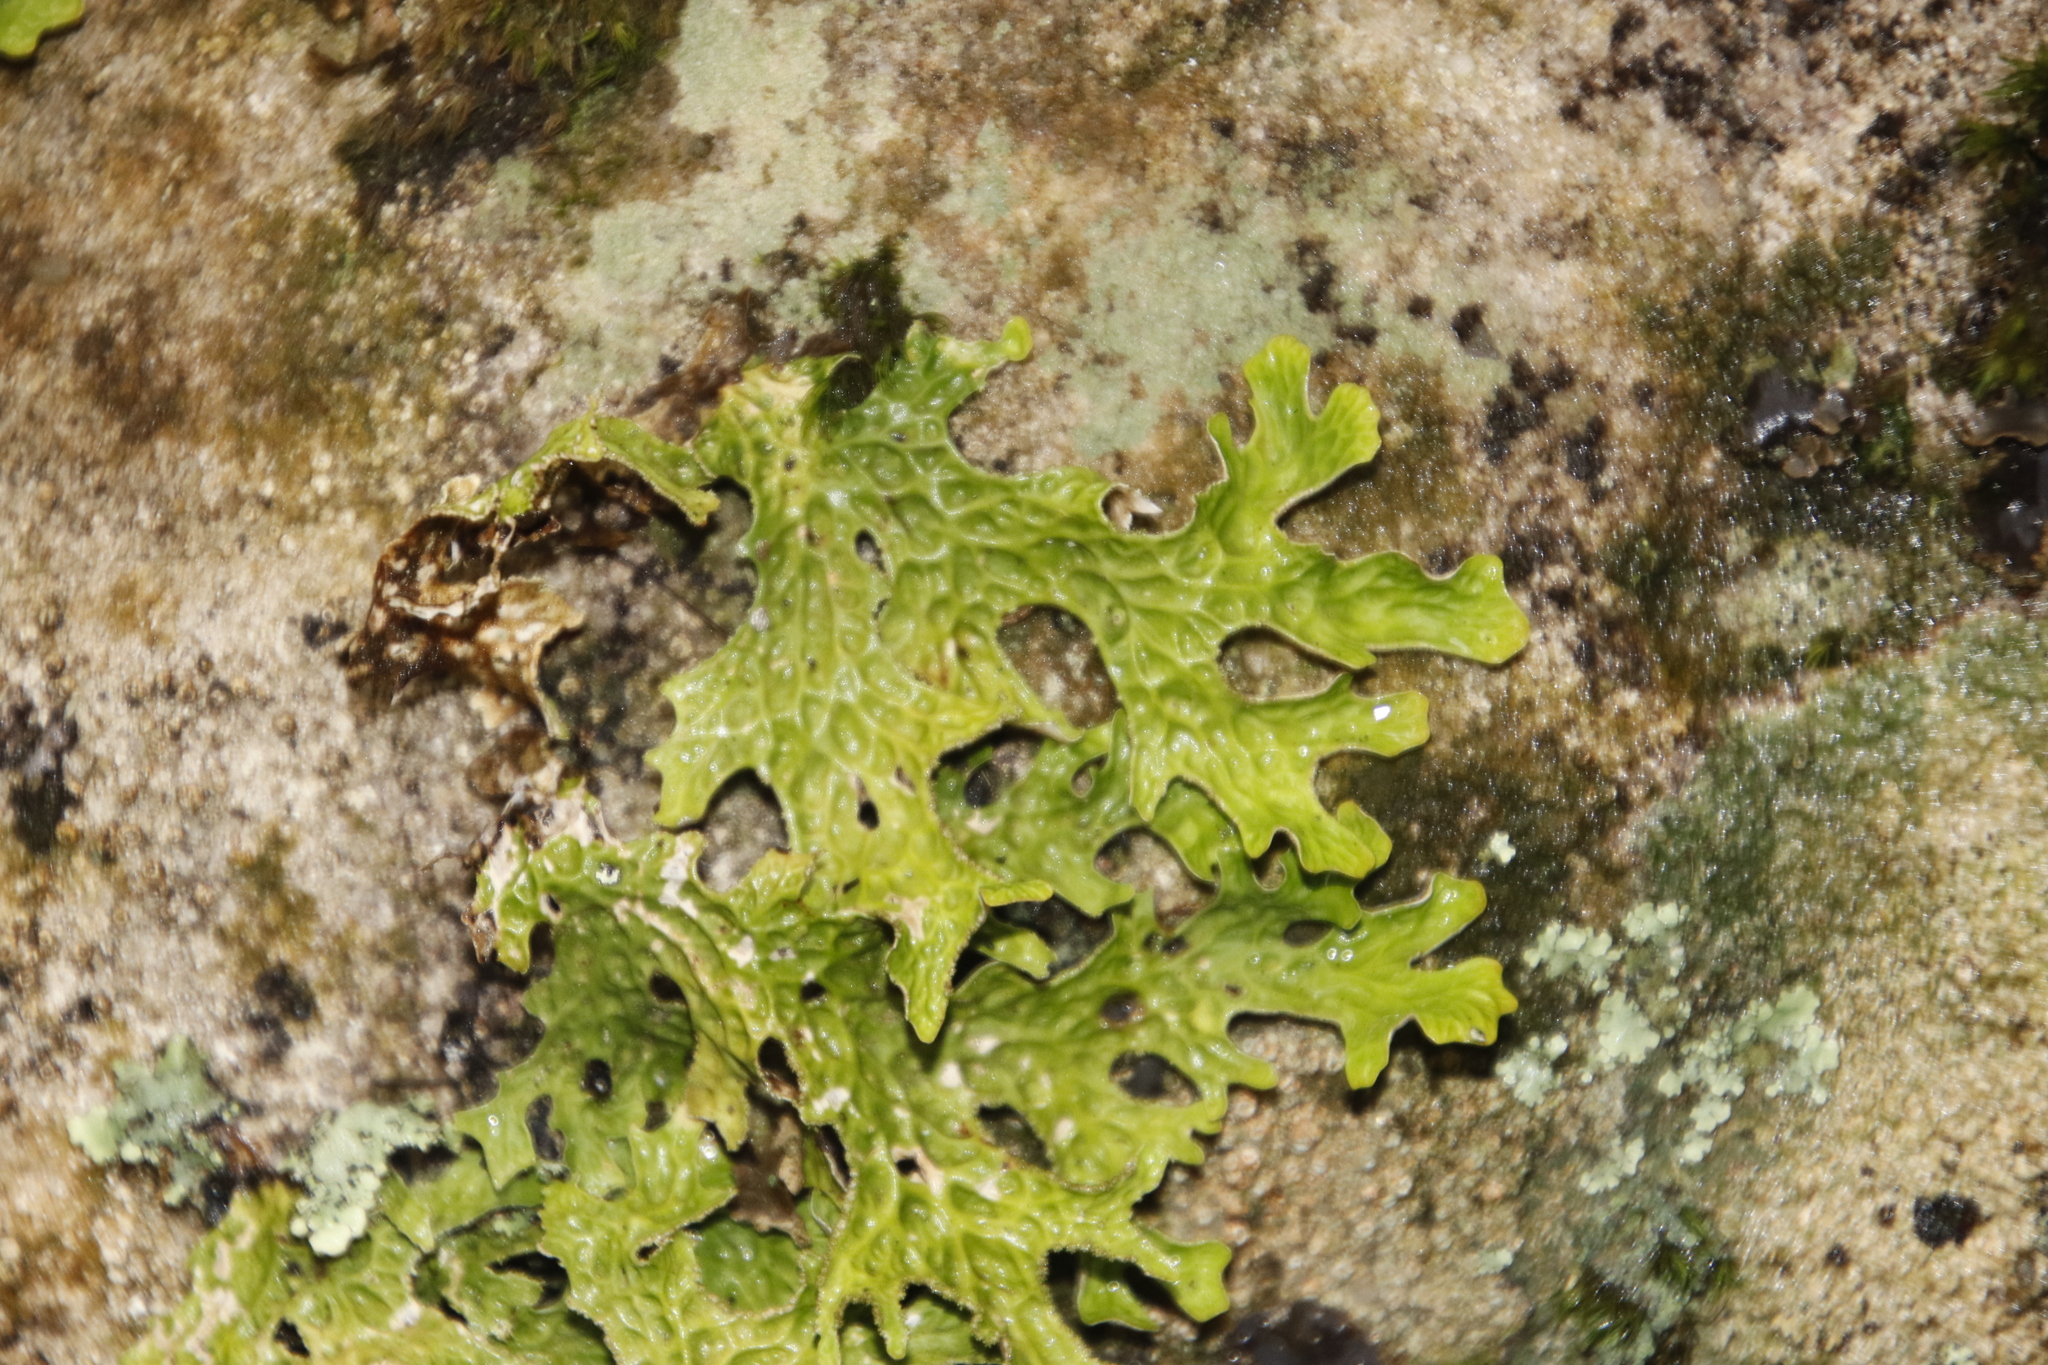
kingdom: Fungi
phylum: Ascomycota
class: Lecanoromycetes
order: Peltigerales
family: Lobariaceae
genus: Lobaria
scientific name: Lobaria pulmonaria
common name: Lungwort
